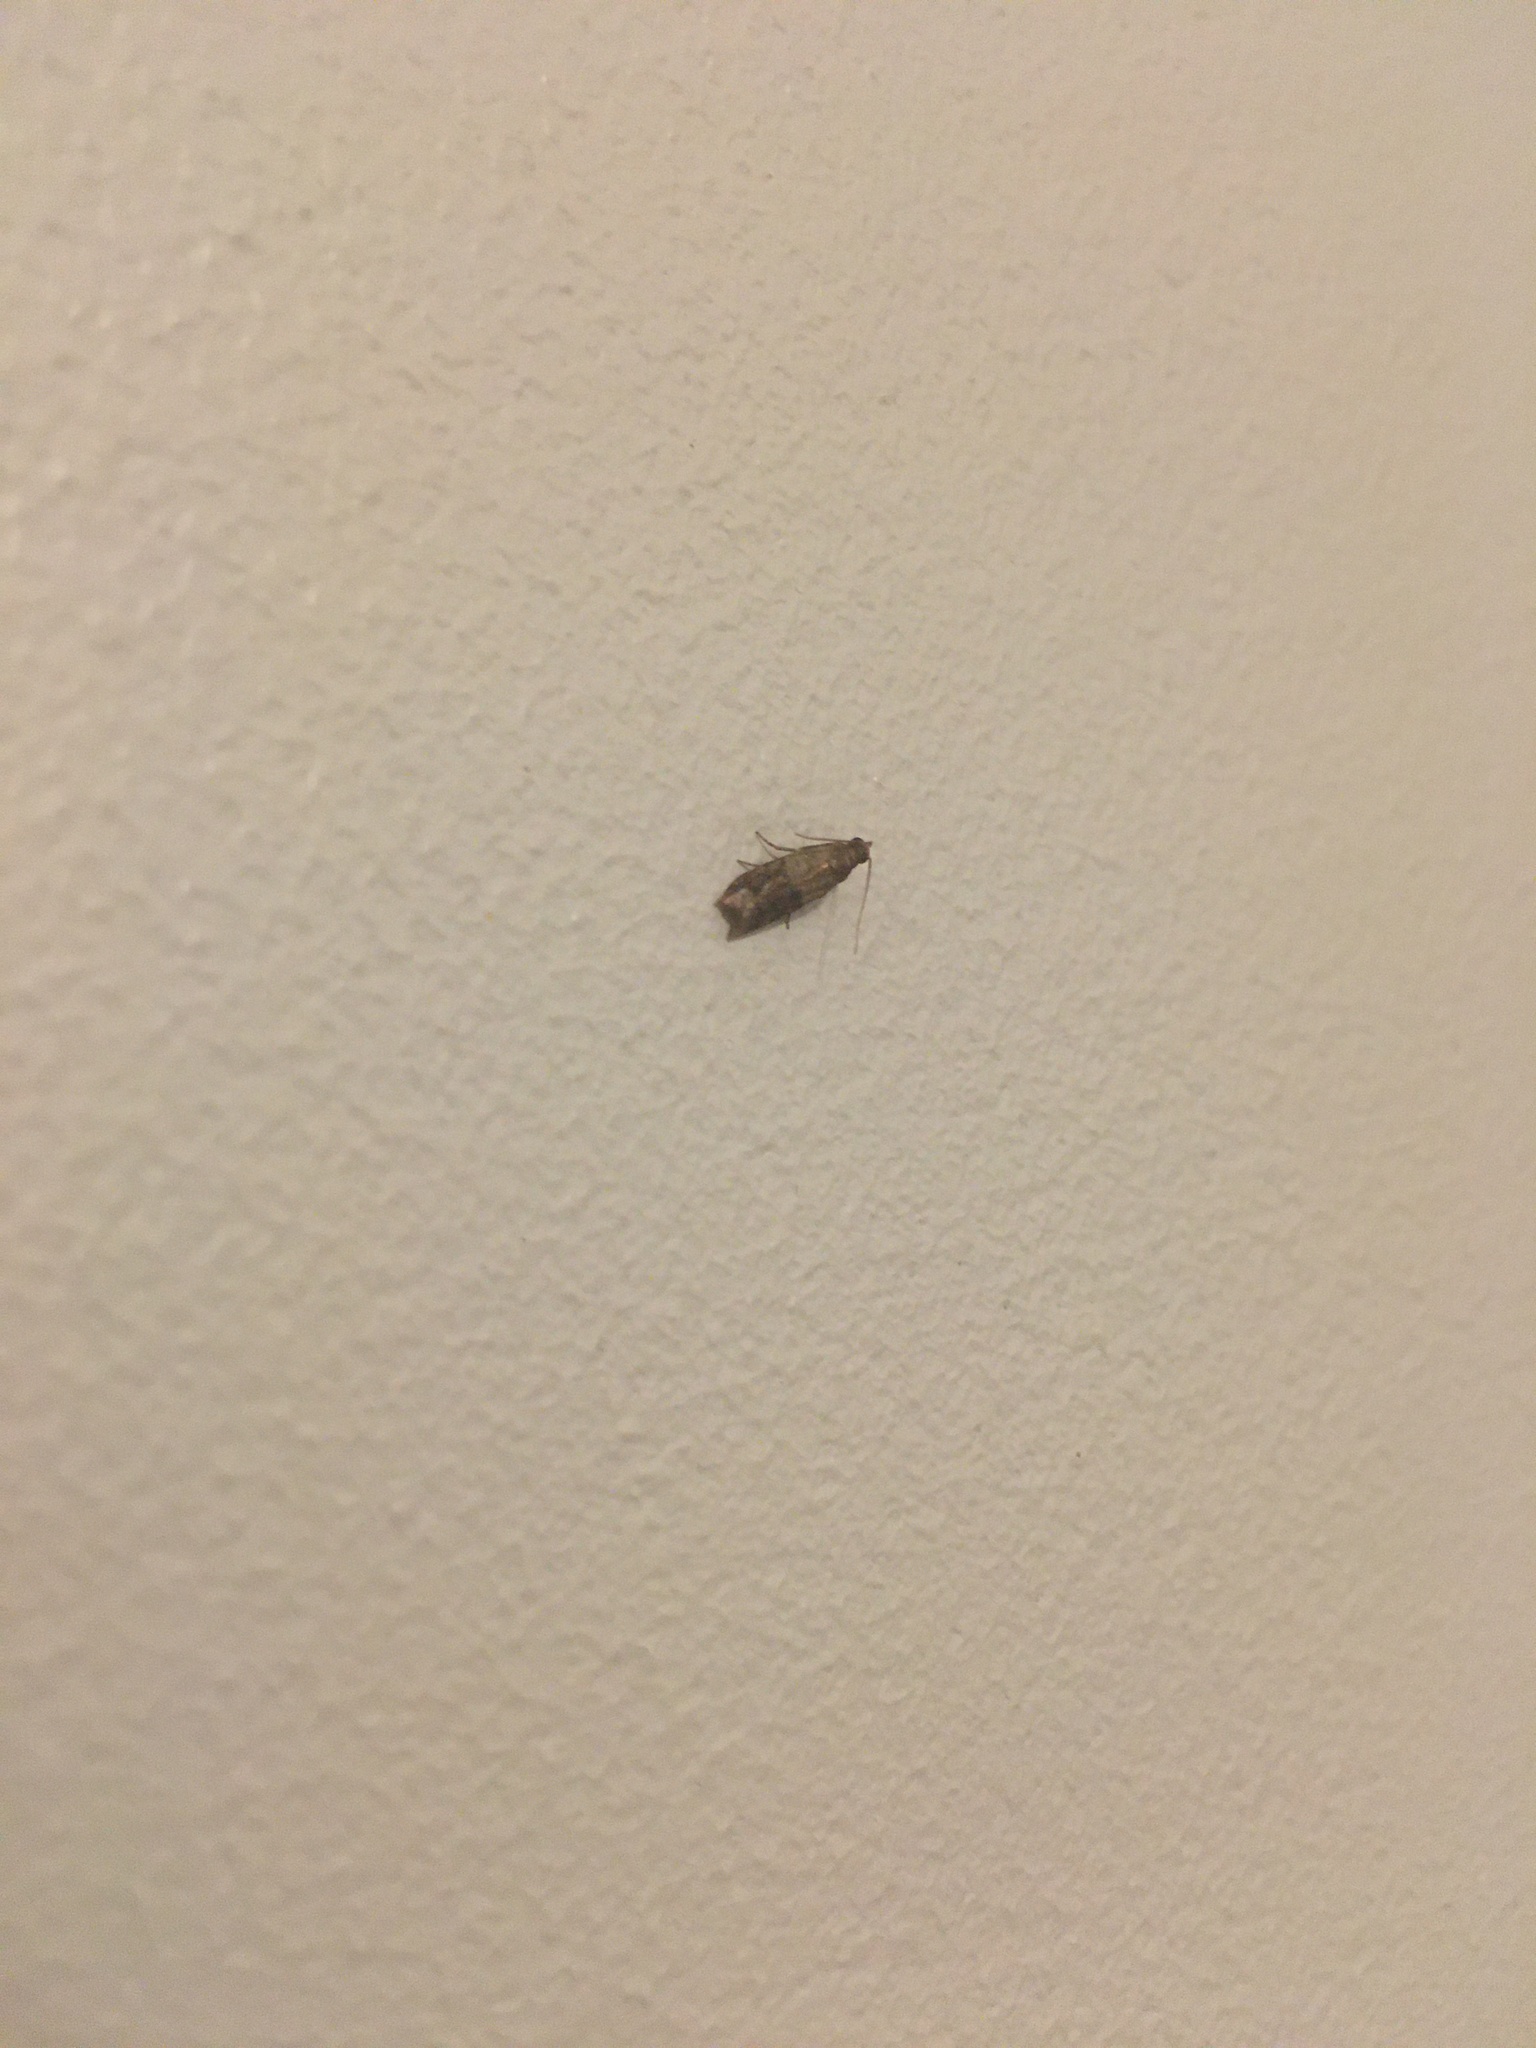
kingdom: Animalia
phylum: Arthropoda
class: Insecta
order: Lepidoptera
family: Pyralidae
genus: Plodia
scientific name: Plodia interpunctella
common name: Indian meal moth
